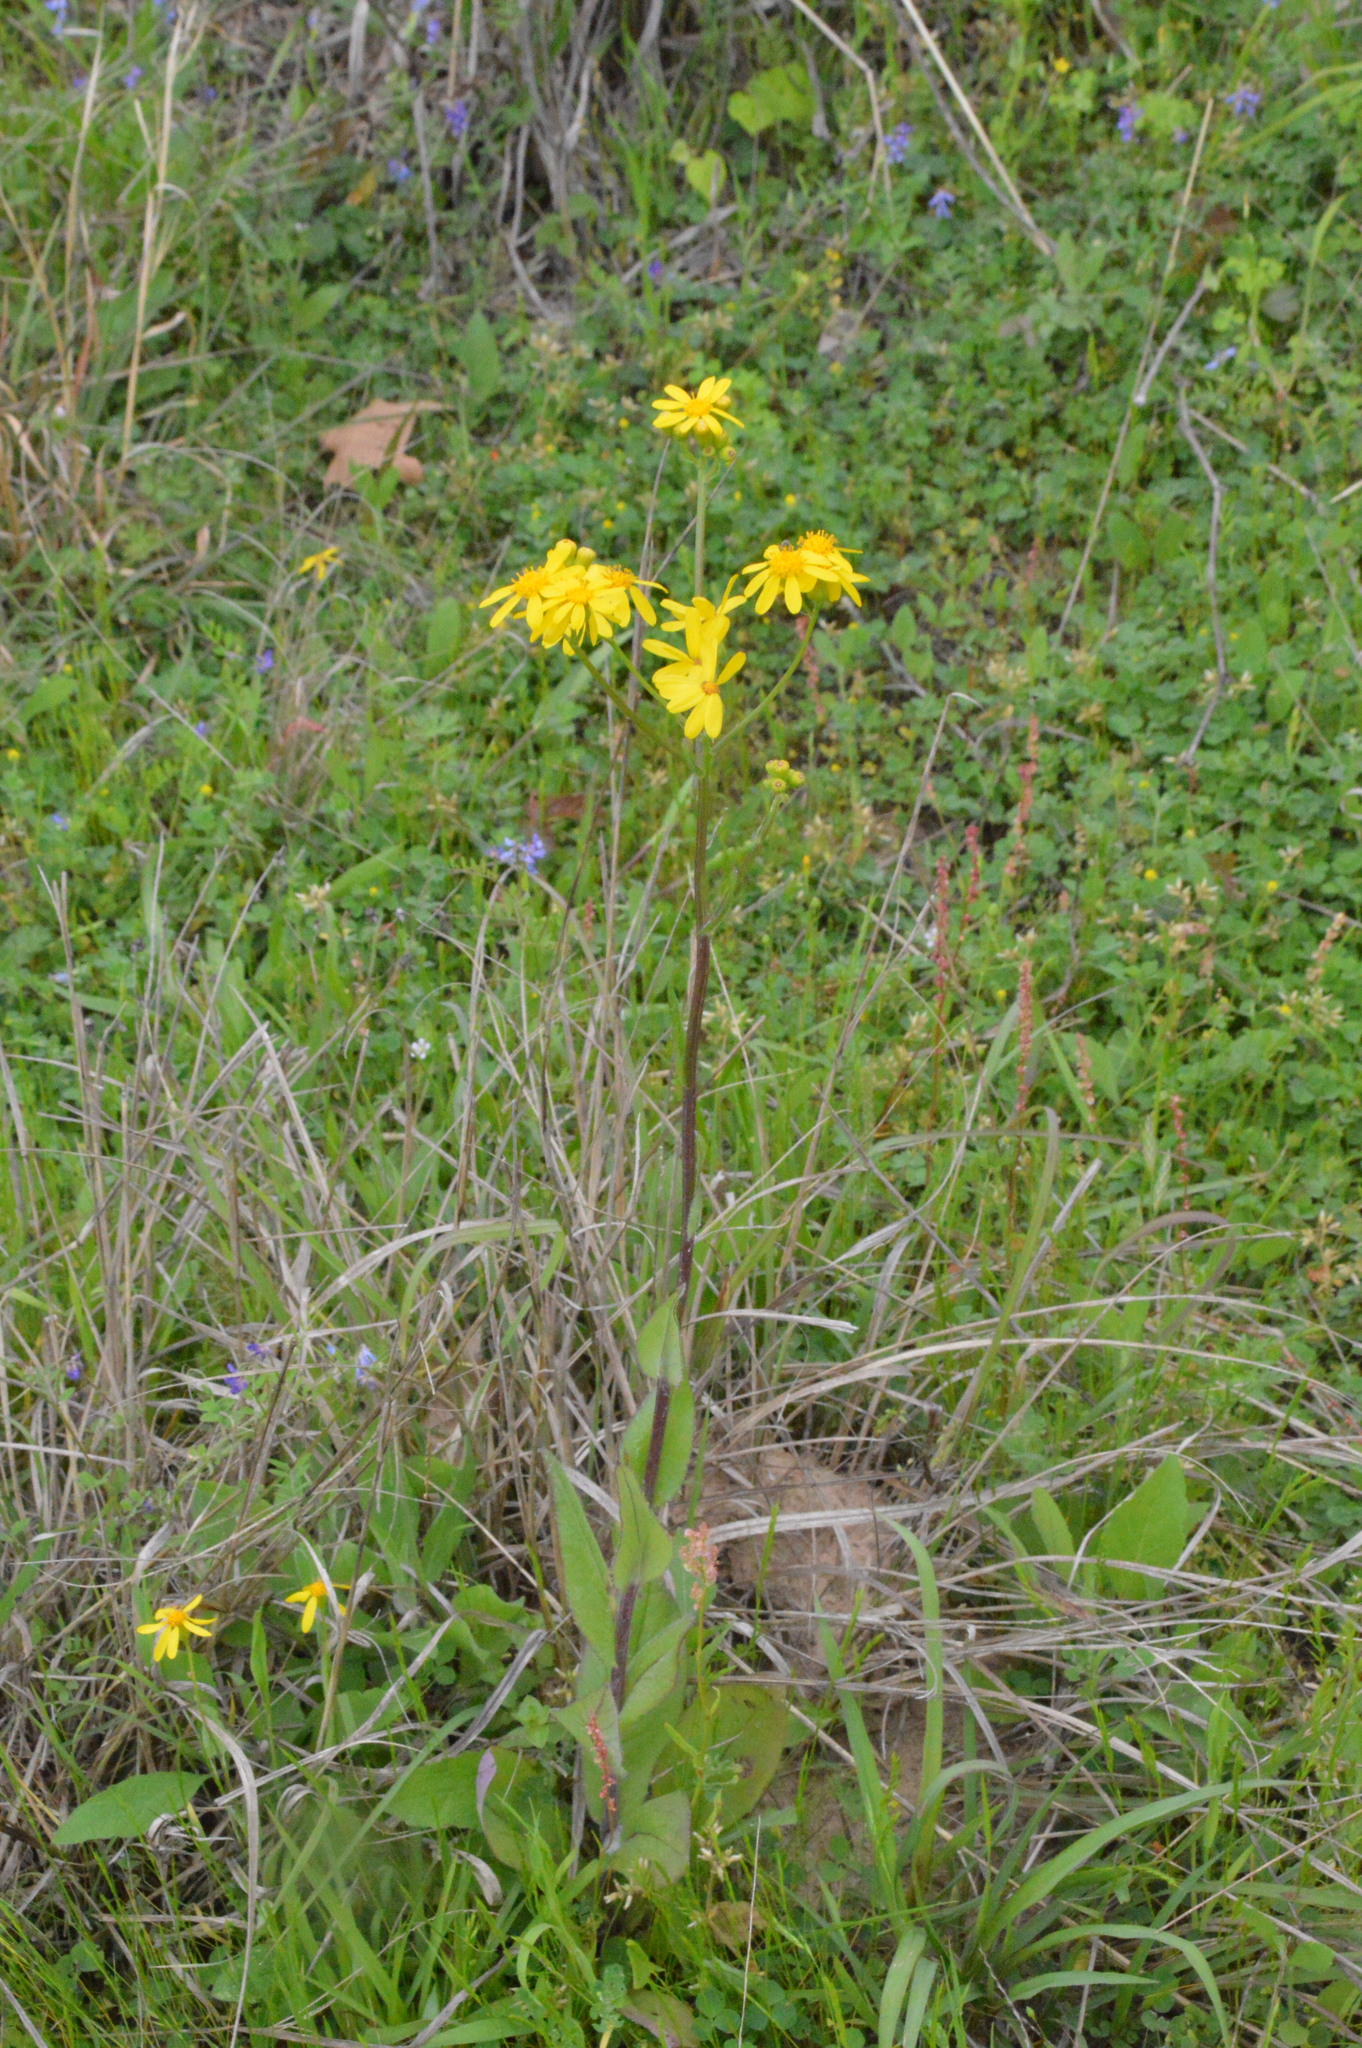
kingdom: Plantae
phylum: Tracheophyta
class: Magnoliopsida
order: Asterales
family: Asteraceae
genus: Senecio
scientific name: Senecio ampullaceus
